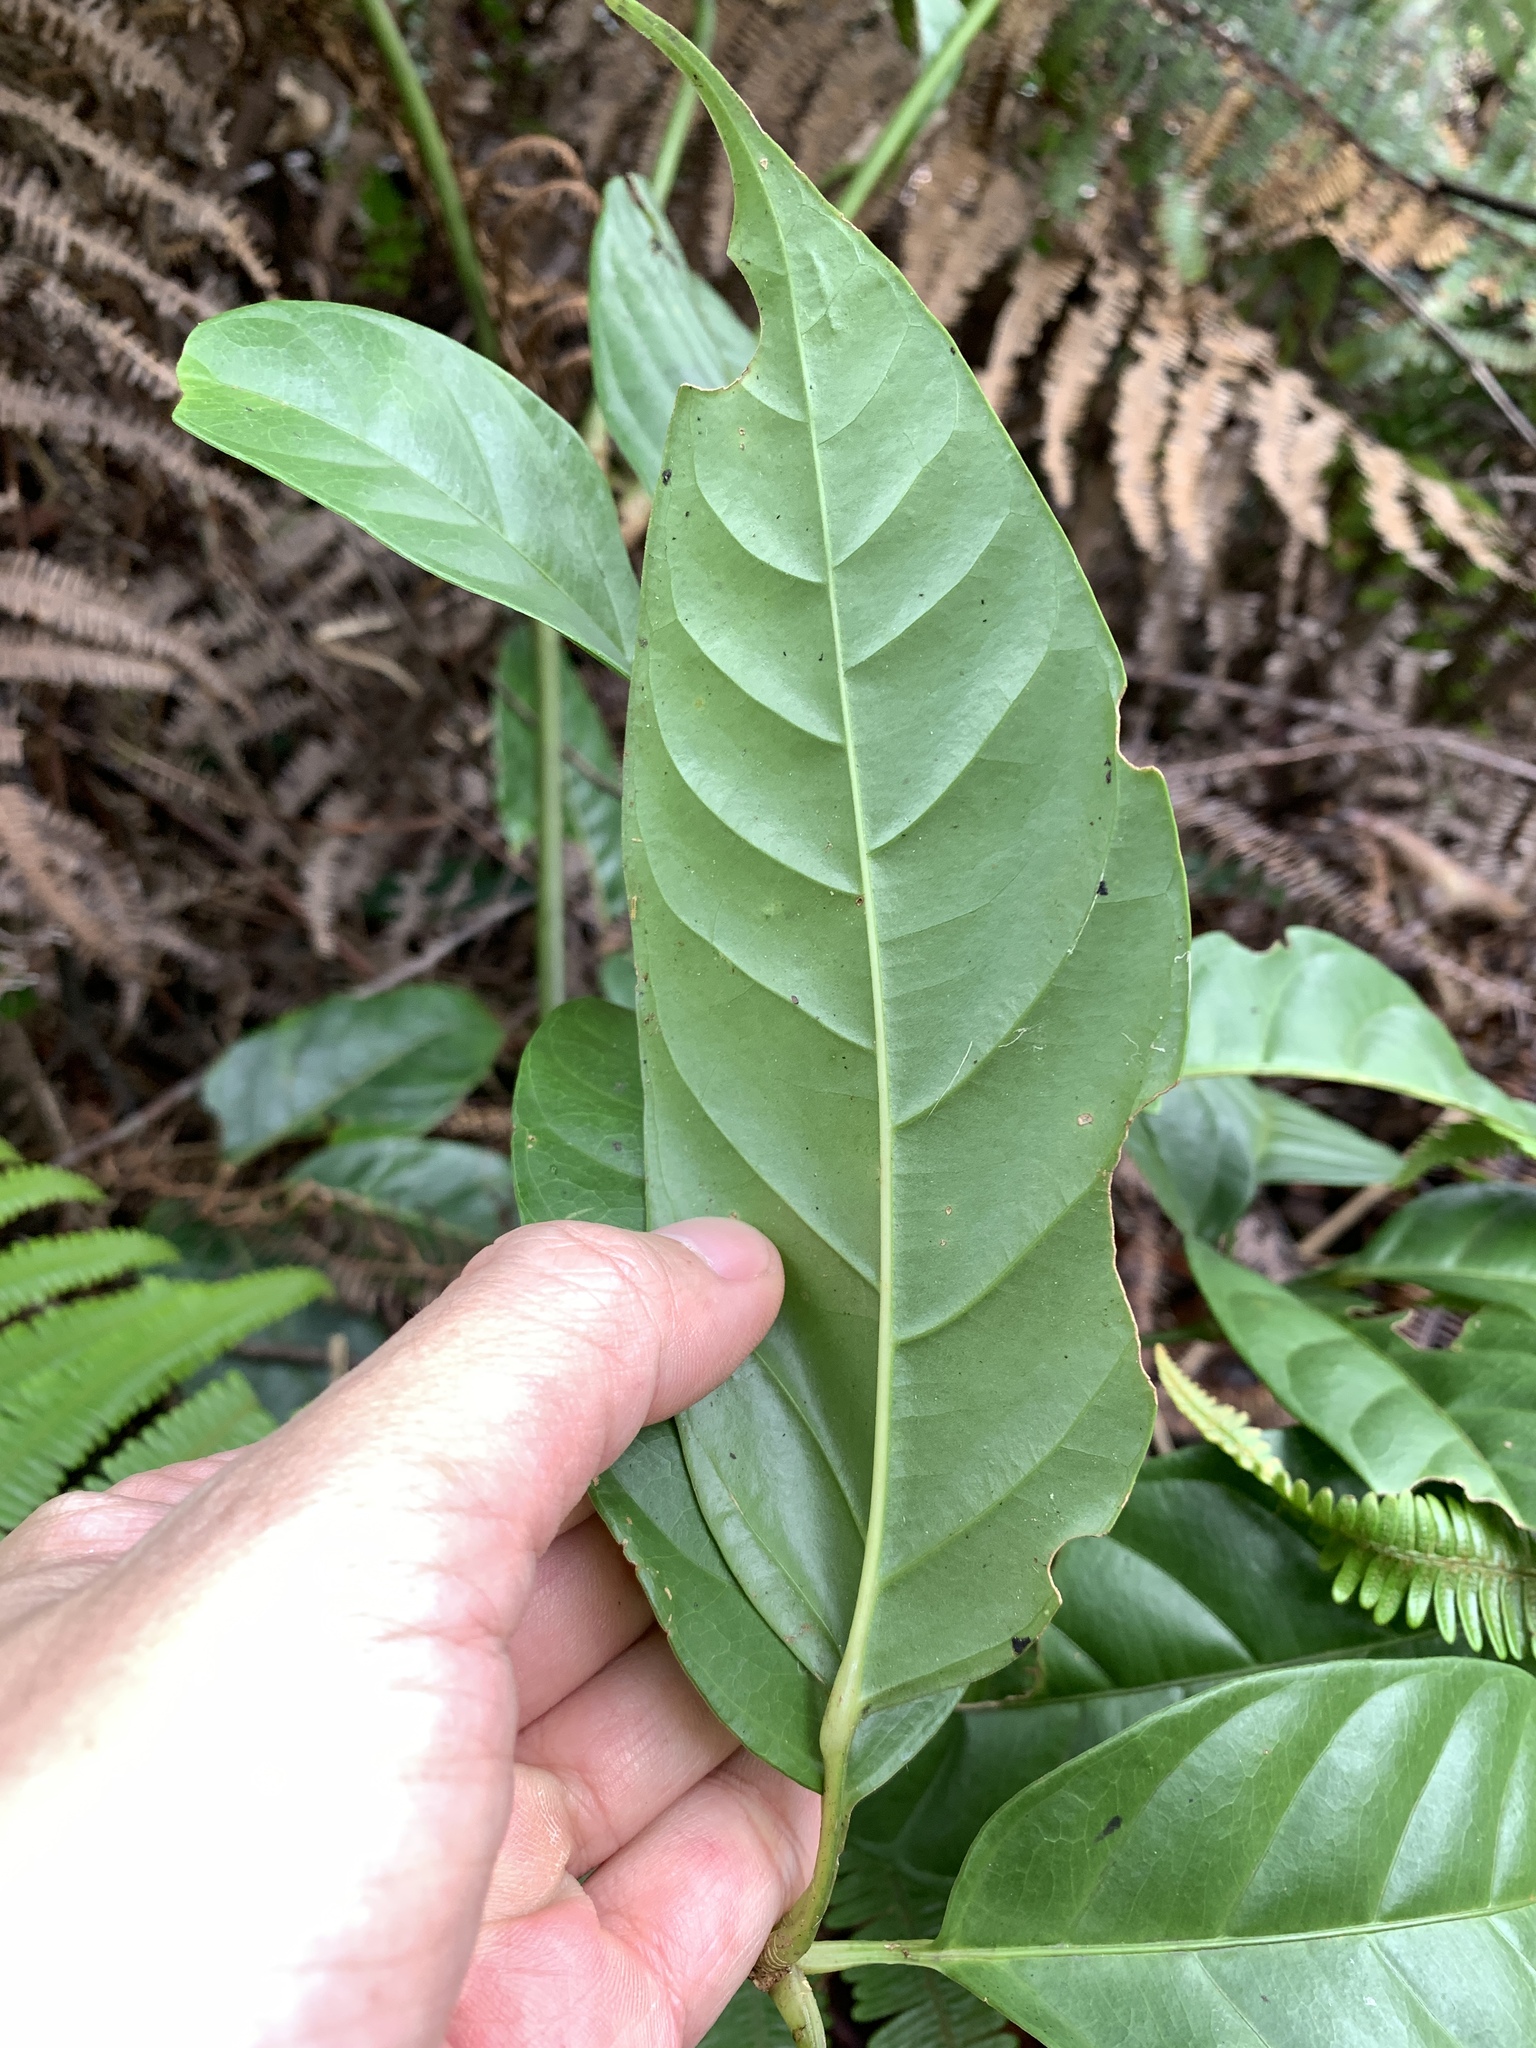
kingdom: Plantae
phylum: Tracheophyta
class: Magnoliopsida
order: Apiales
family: Araliaceae
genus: Heptapleurum
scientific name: Heptapleurum bipalmatifolium
